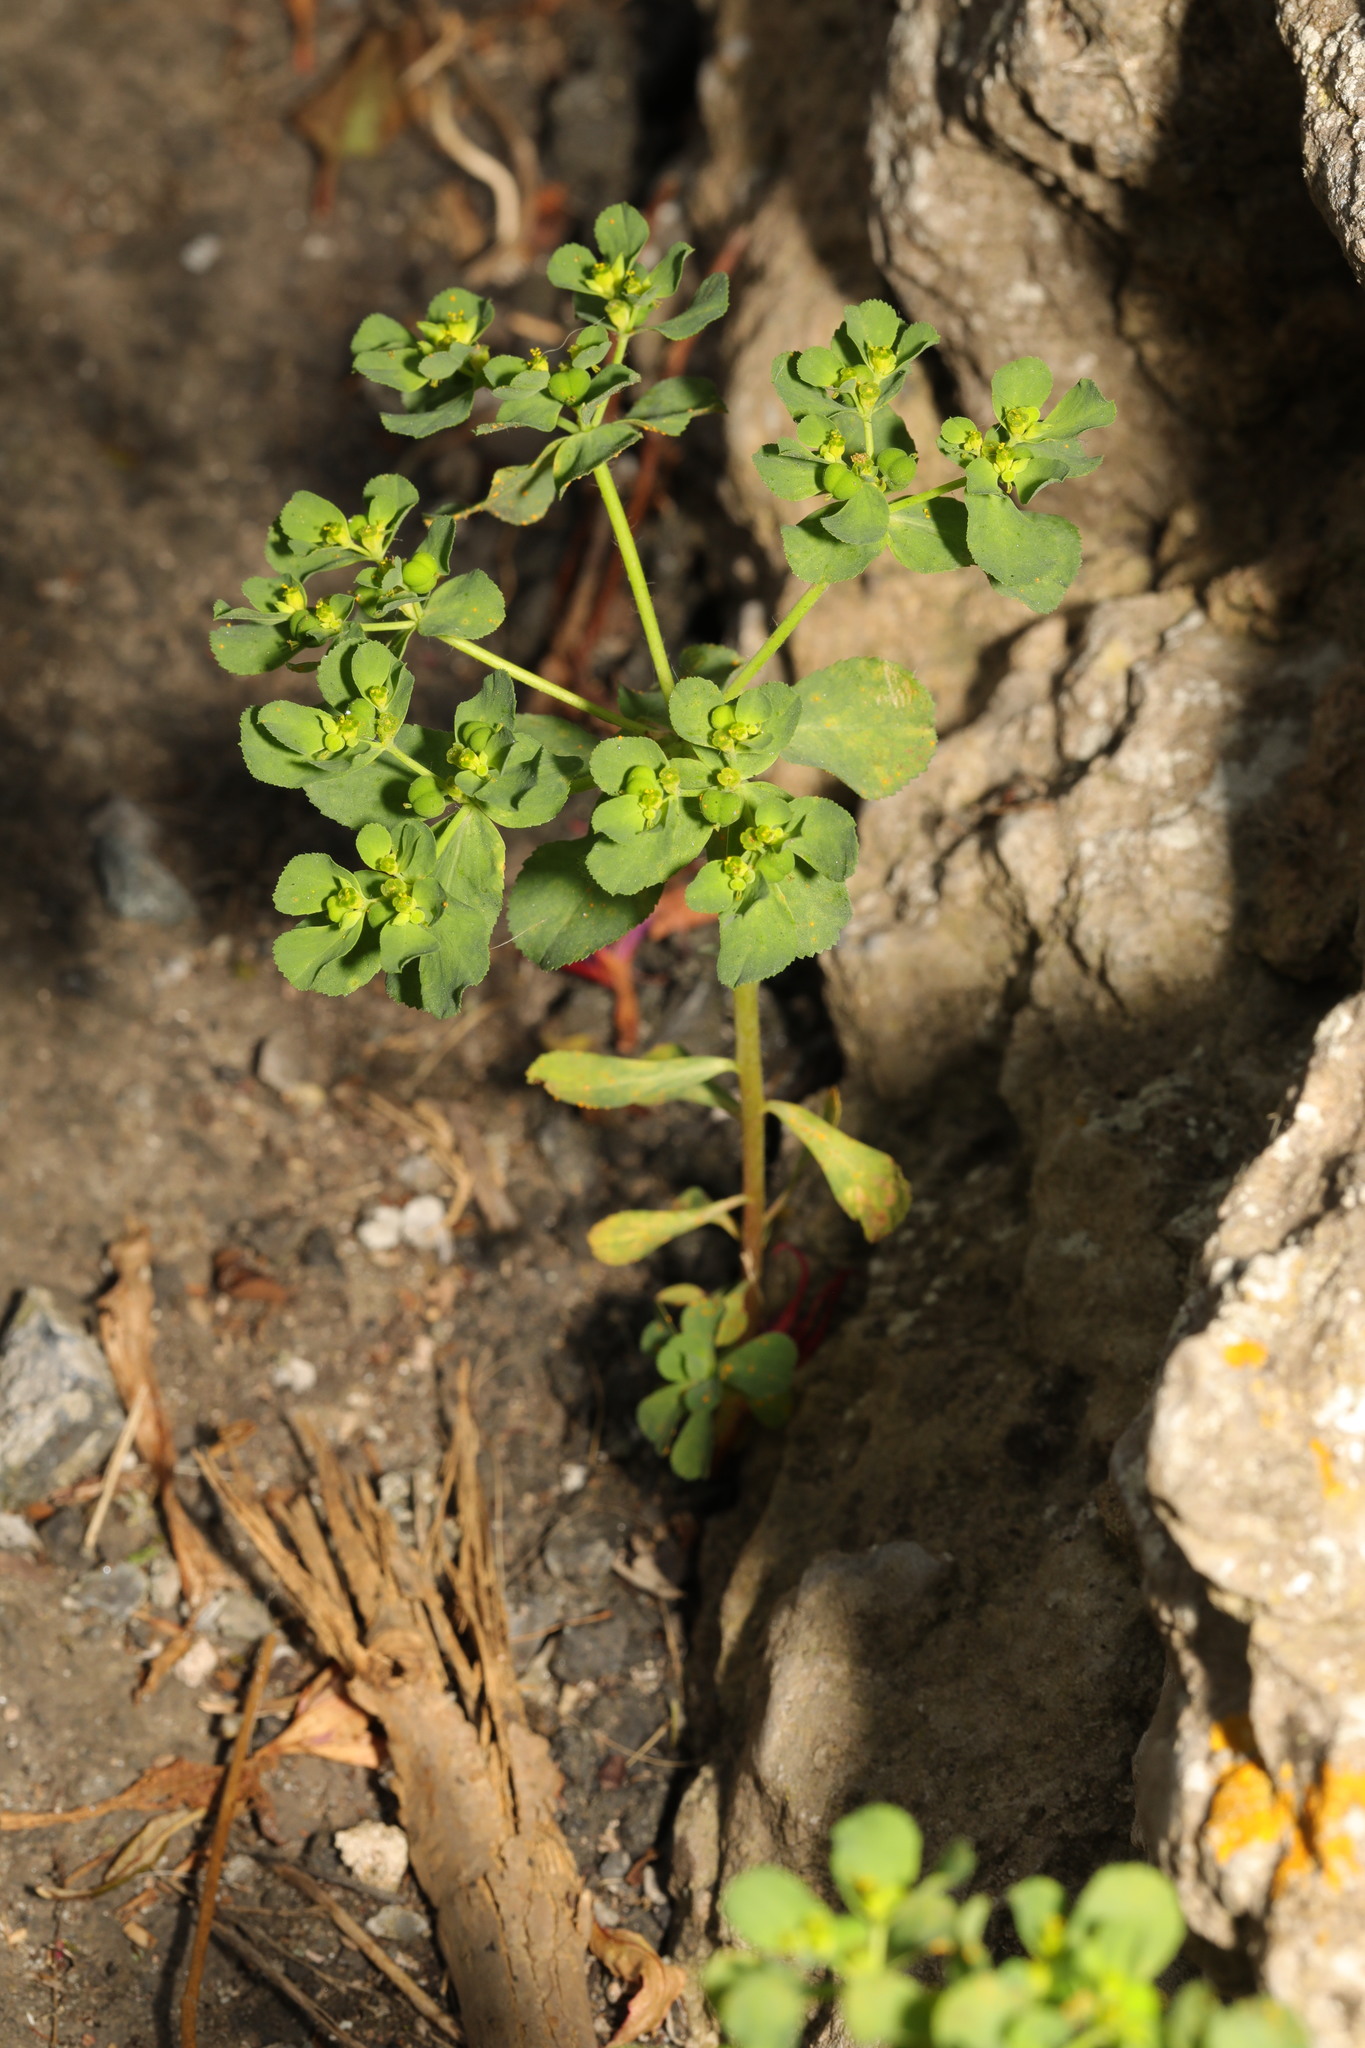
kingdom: Plantae
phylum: Tracheophyta
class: Magnoliopsida
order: Malpighiales
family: Euphorbiaceae
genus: Euphorbia
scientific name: Euphorbia helioscopia
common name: Sun spurge
